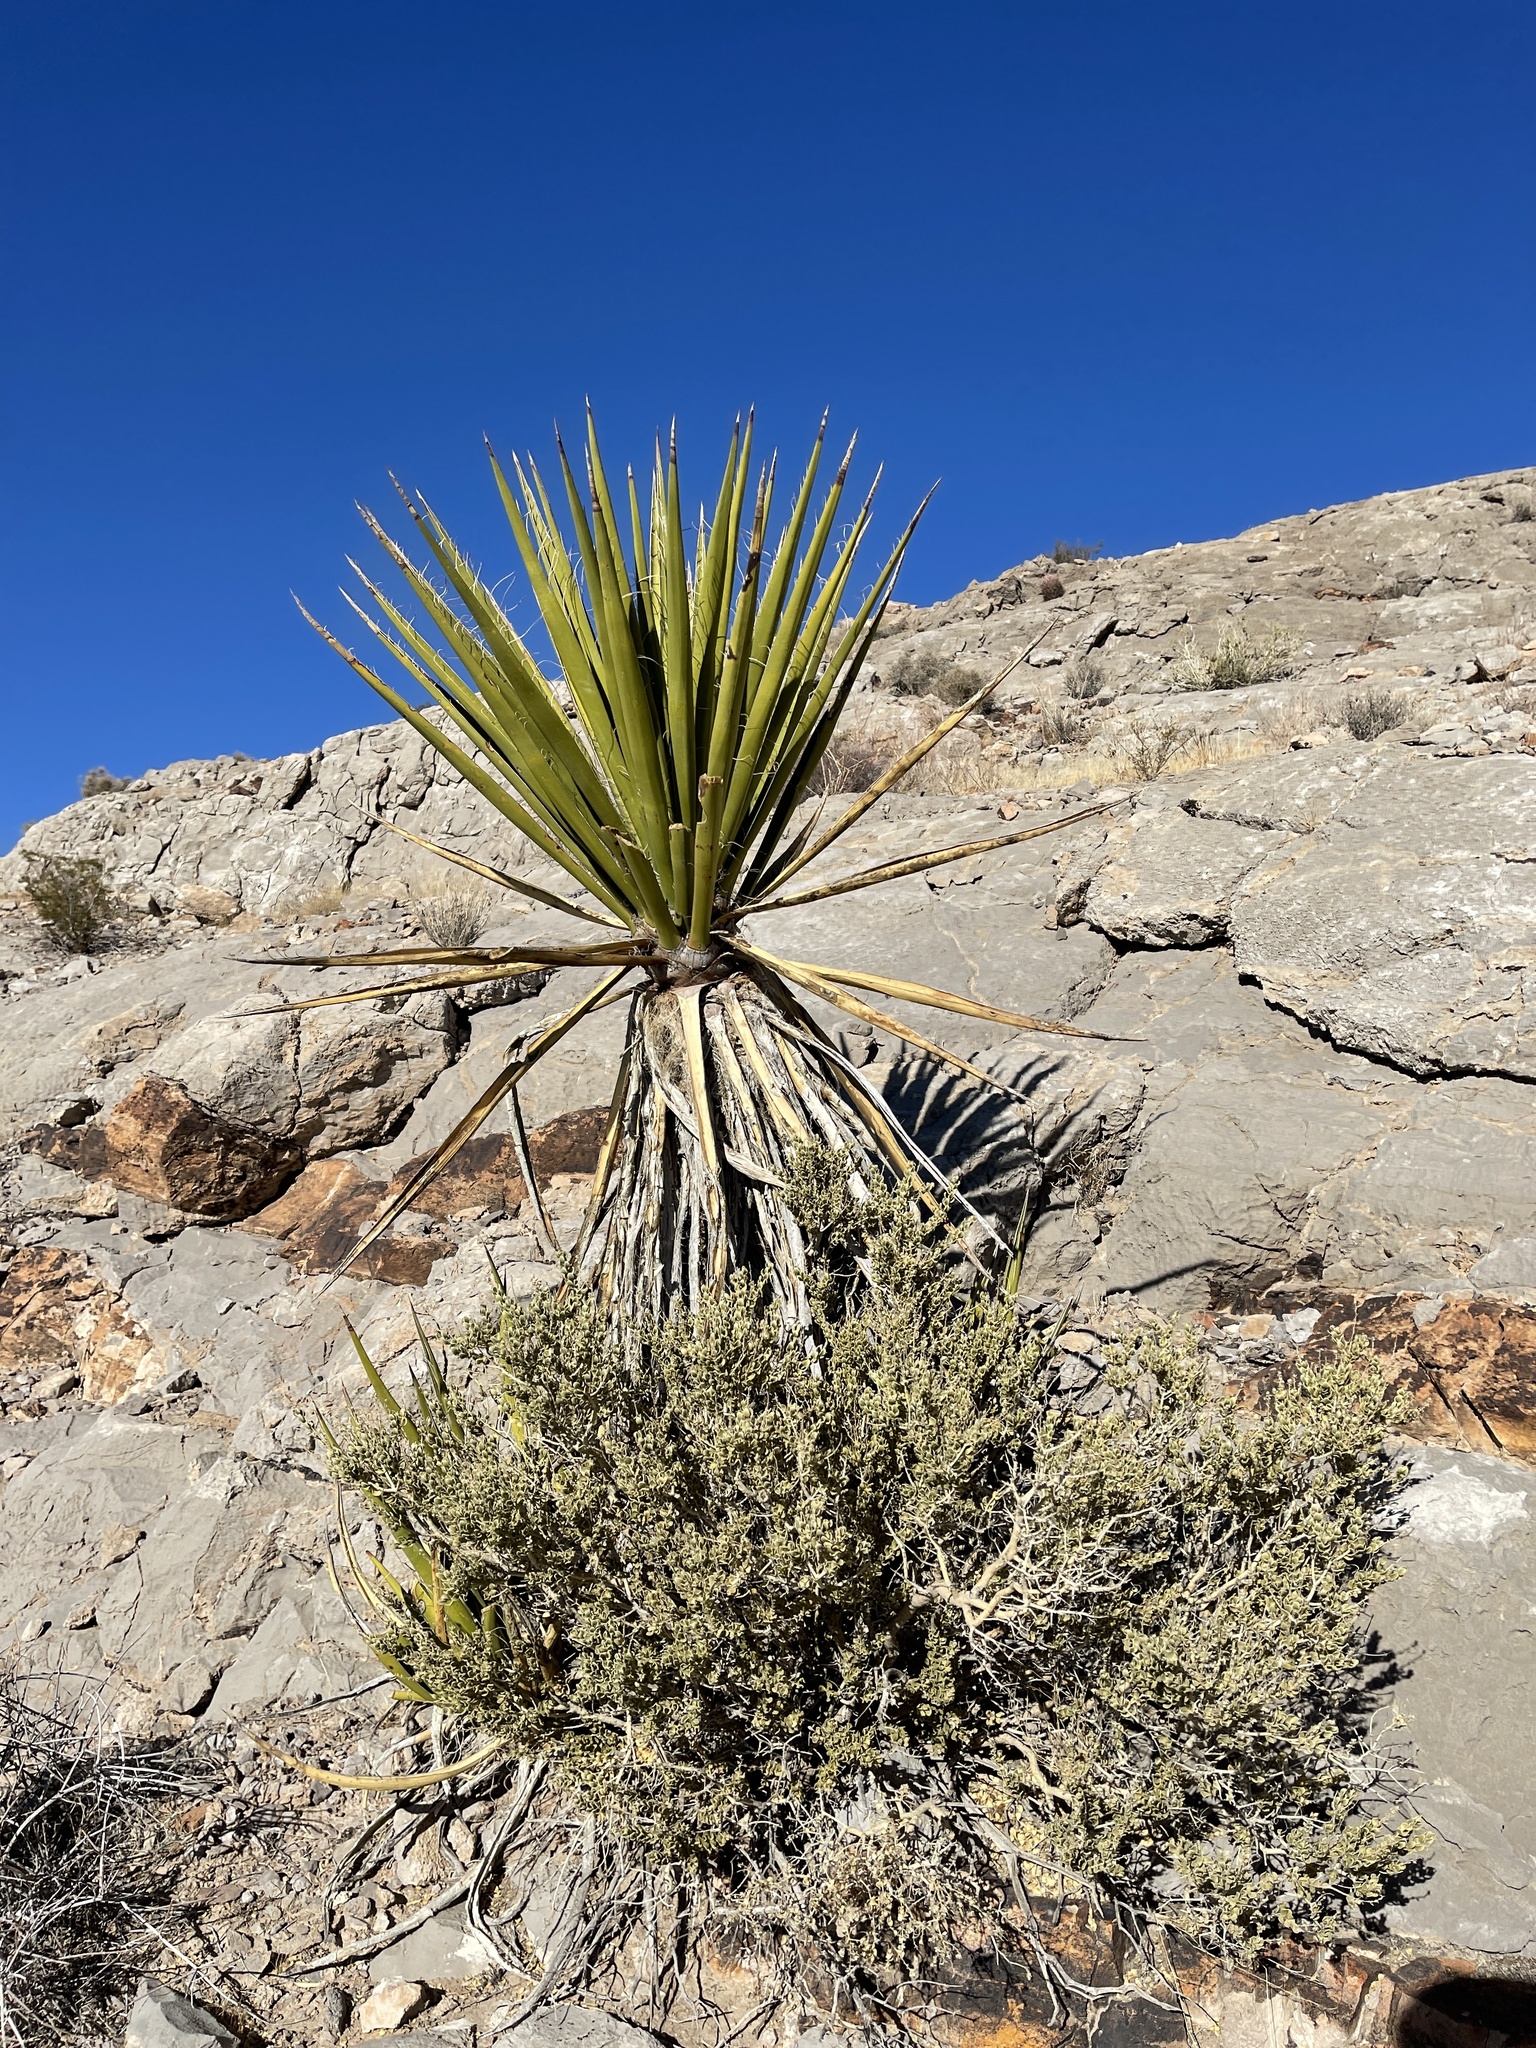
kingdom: Plantae
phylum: Tracheophyta
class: Liliopsida
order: Asparagales
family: Asparagaceae
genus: Yucca
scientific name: Yucca schidigera
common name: Mojave yucca
